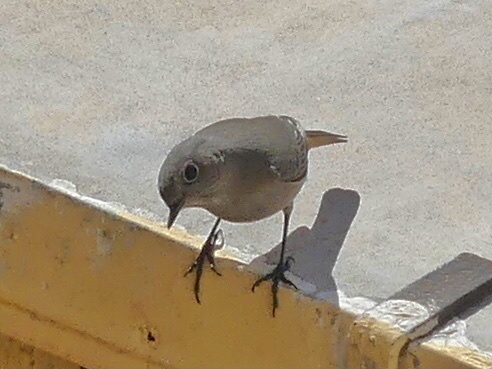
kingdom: Animalia
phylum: Chordata
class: Aves
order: Passeriformes
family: Muscicapidae
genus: Phoenicurus
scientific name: Phoenicurus ochruros
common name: Black redstart
